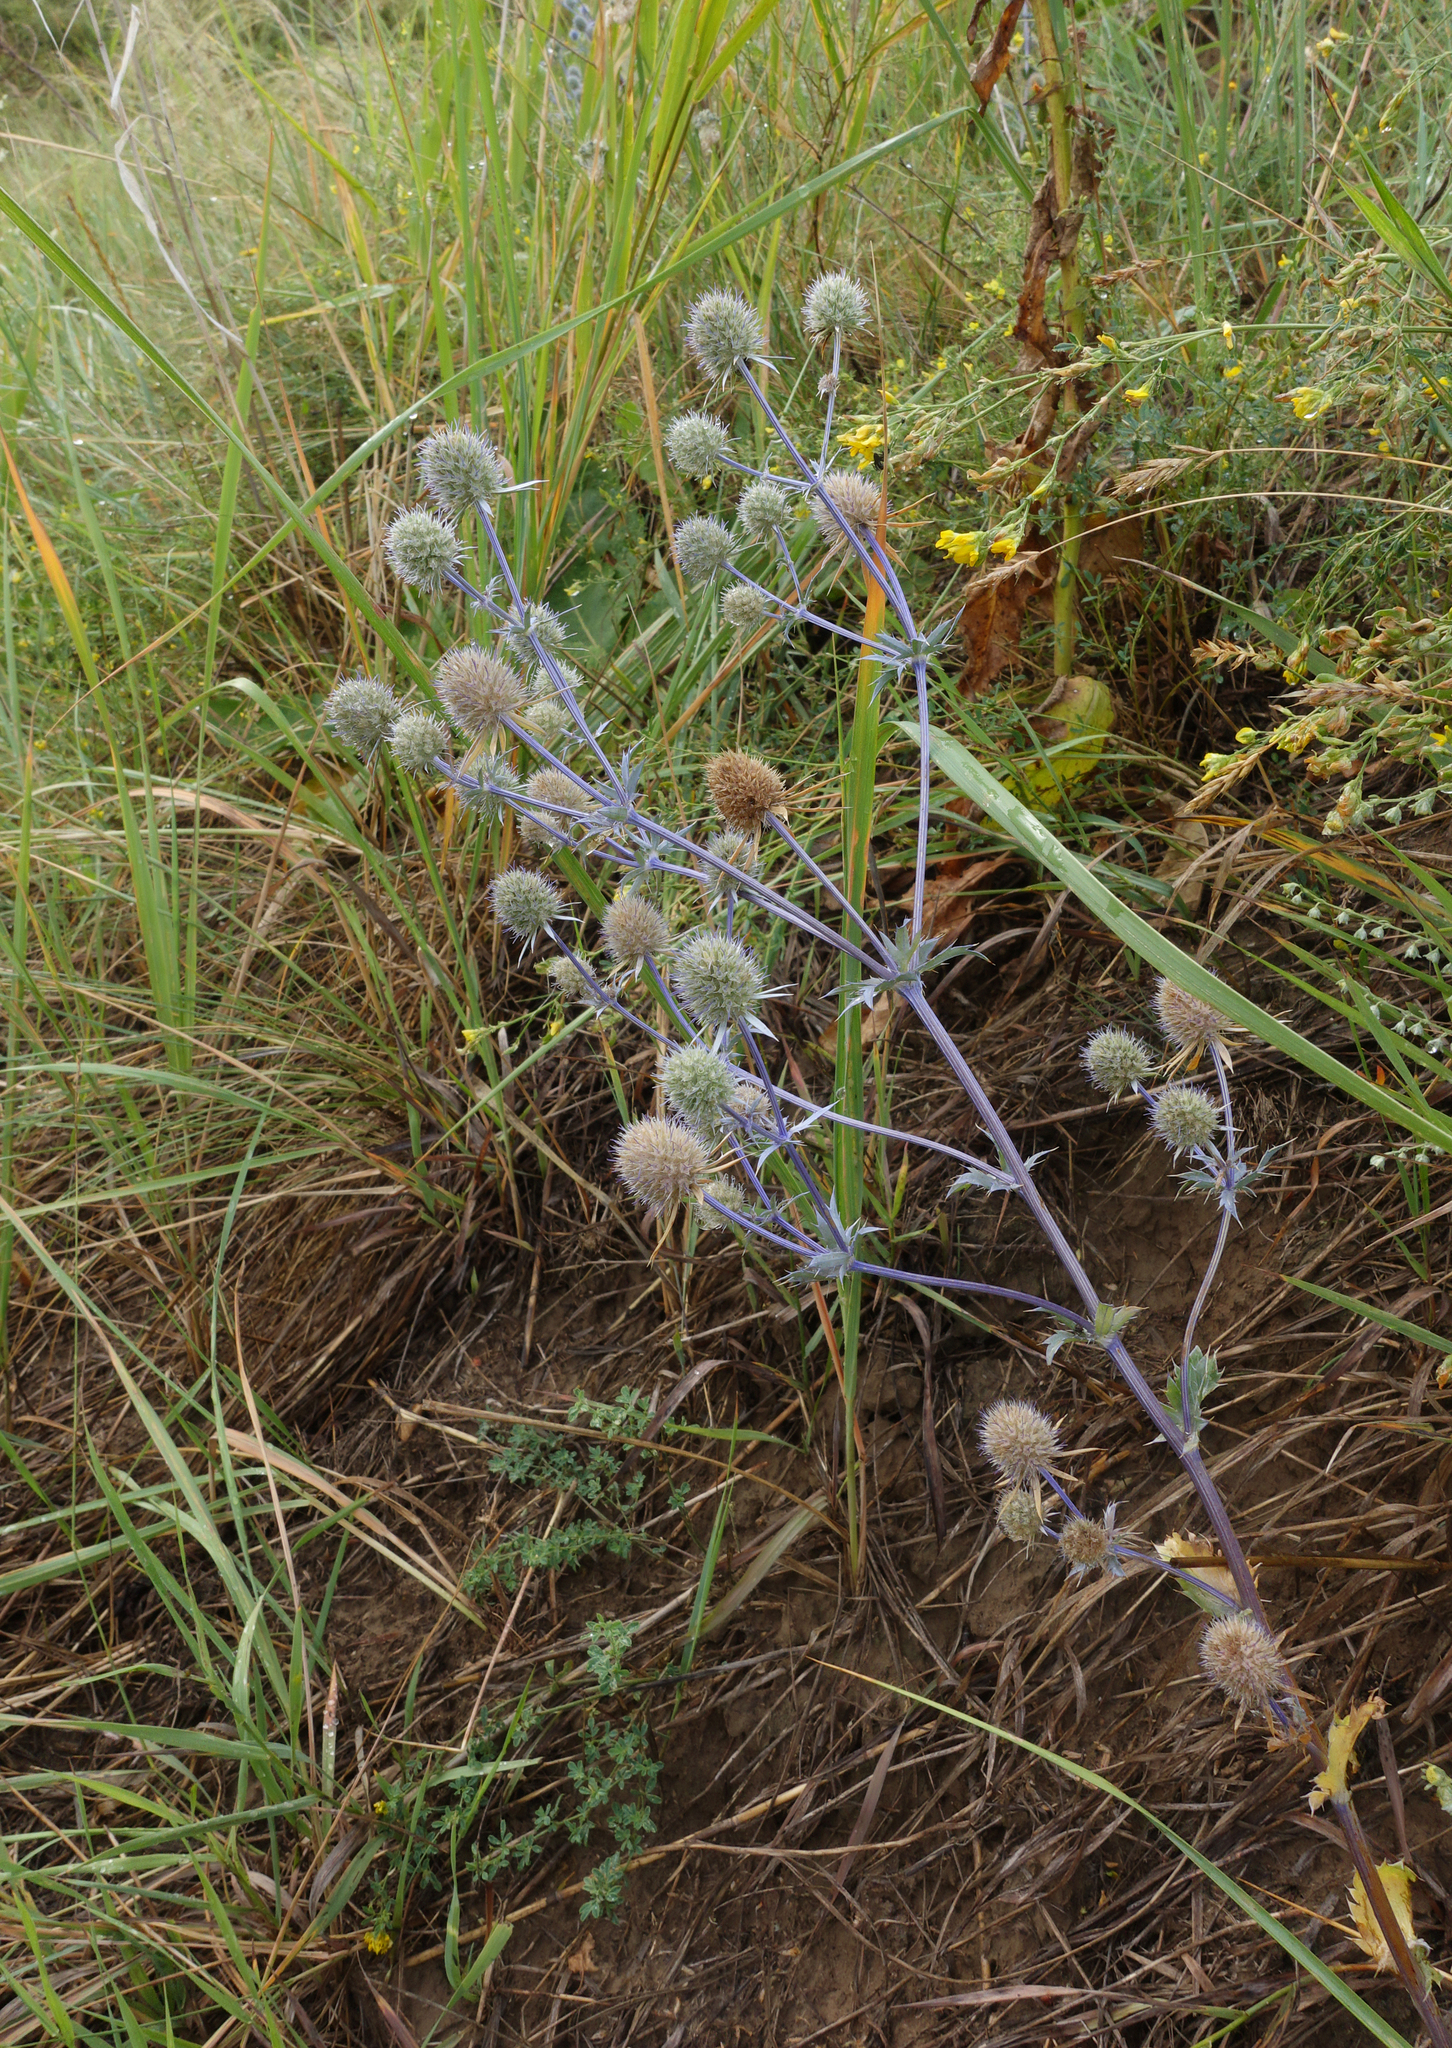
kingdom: Plantae
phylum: Tracheophyta
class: Magnoliopsida
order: Apiales
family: Apiaceae
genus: Eryngium
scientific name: Eryngium planum
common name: Blue eryngo
